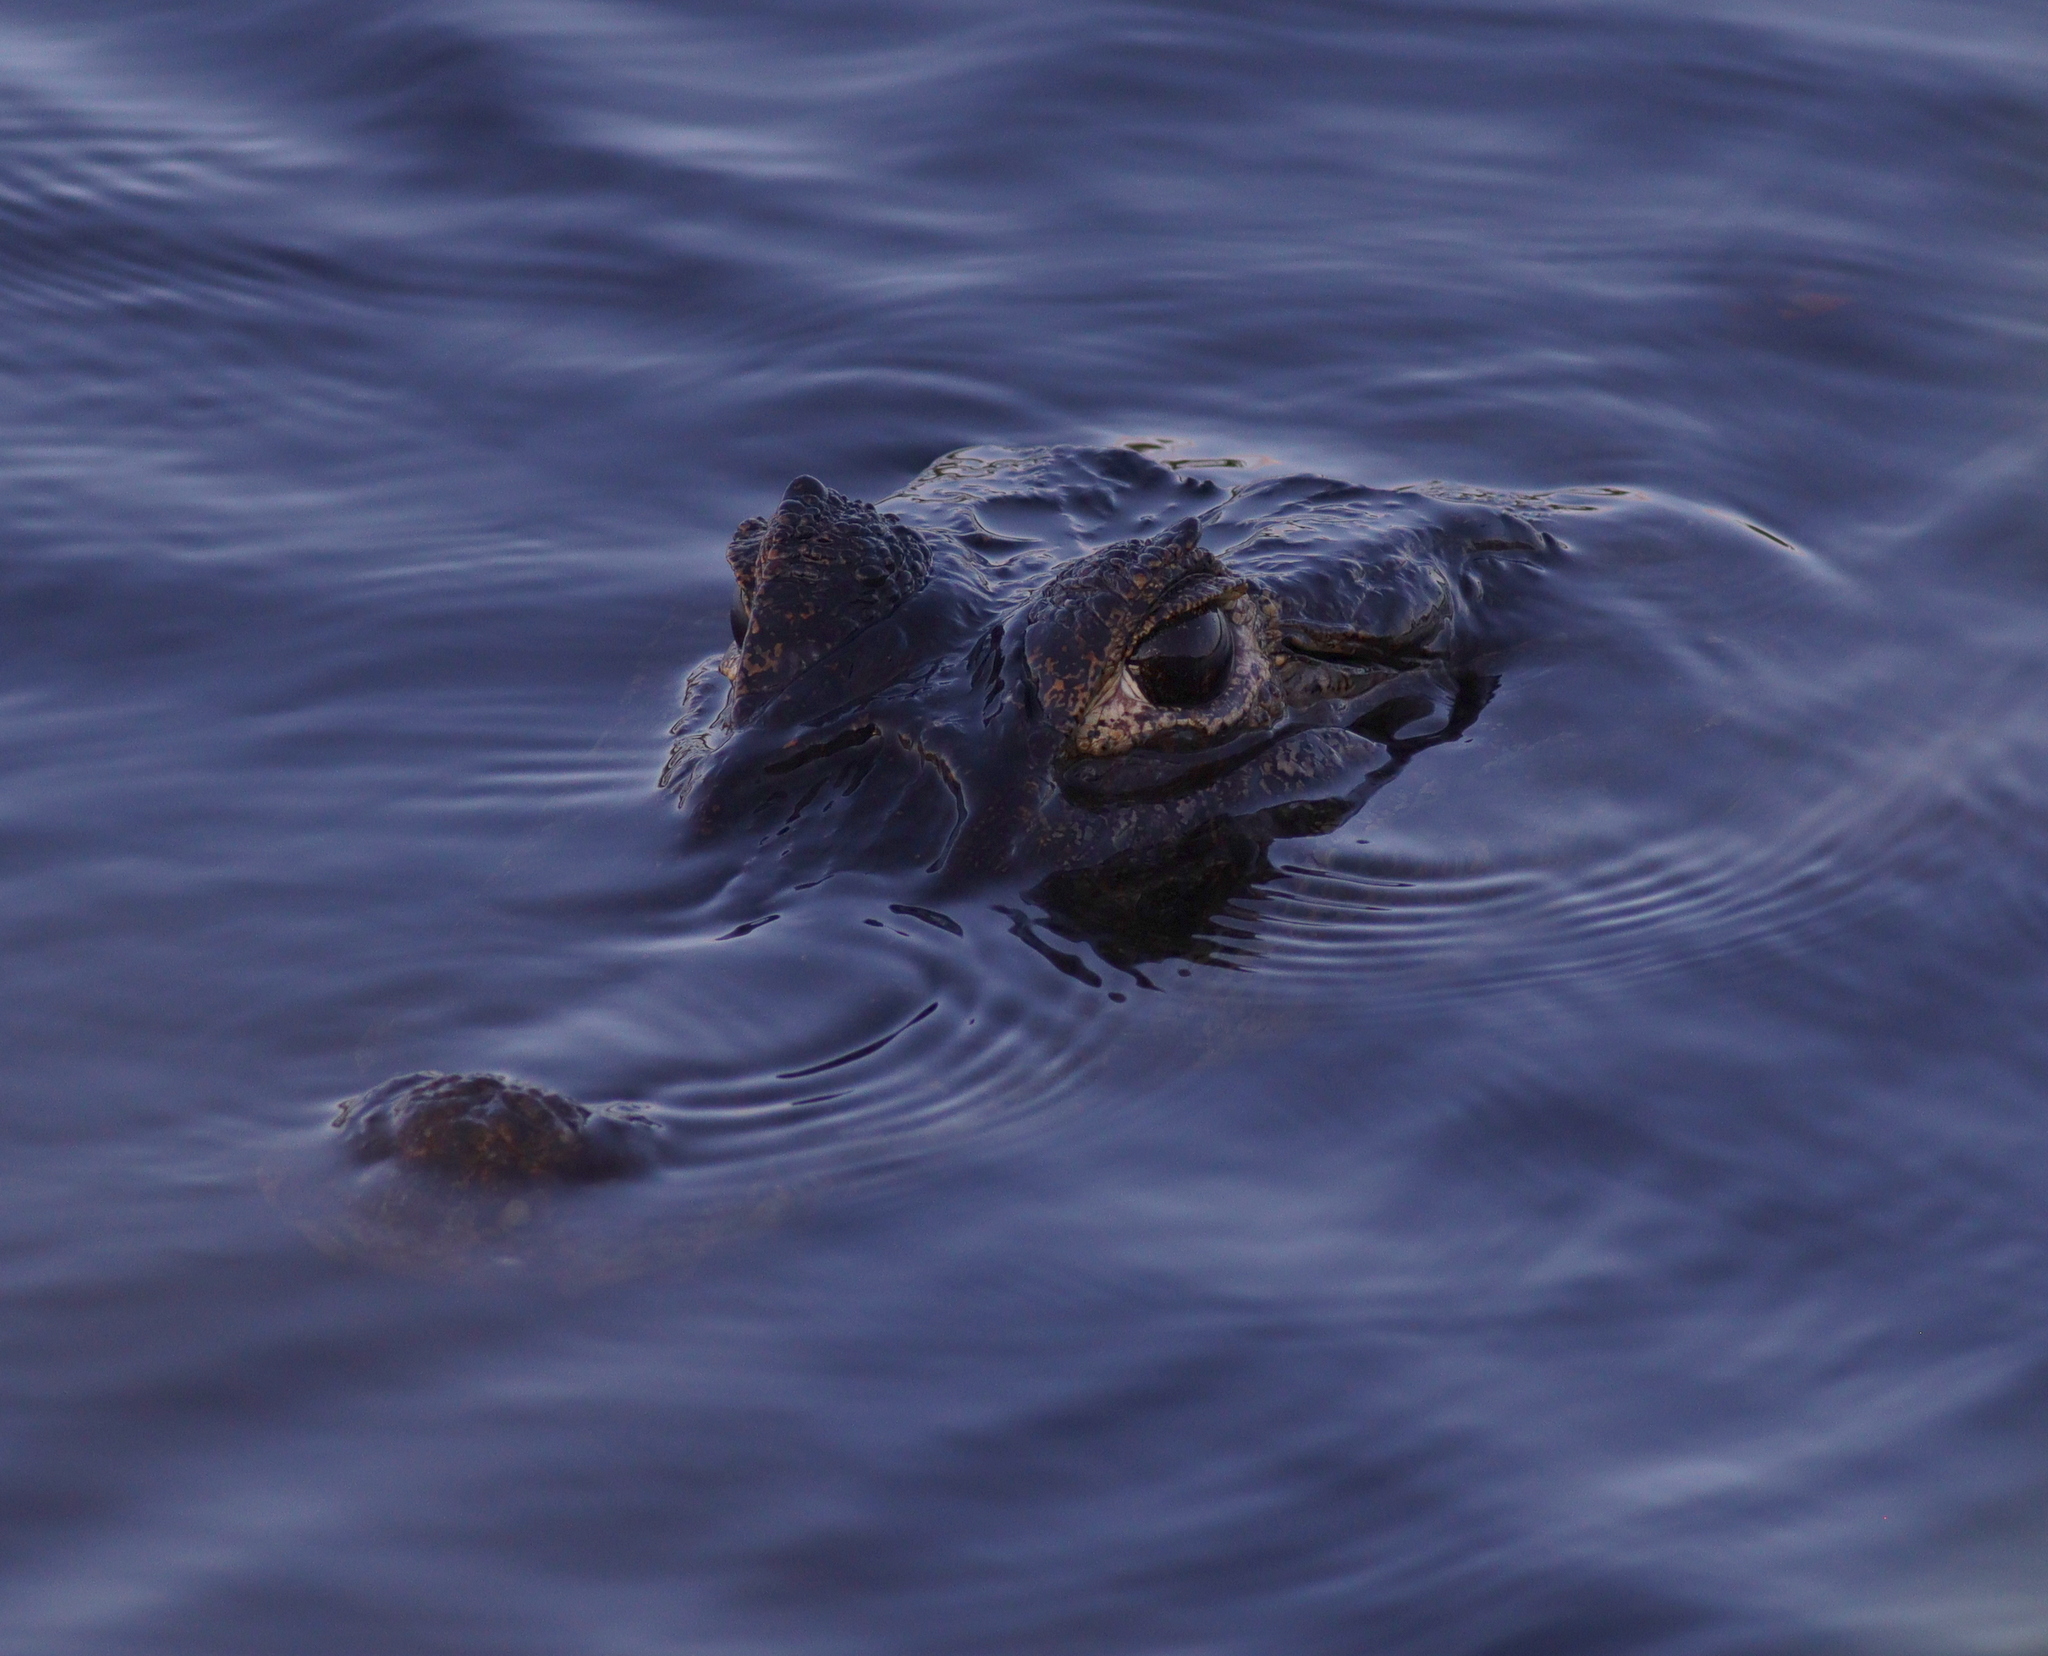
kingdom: Animalia
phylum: Chordata
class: Crocodylia
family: Alligatoridae
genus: Caiman
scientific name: Caiman yacare
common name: Yacare caiman
